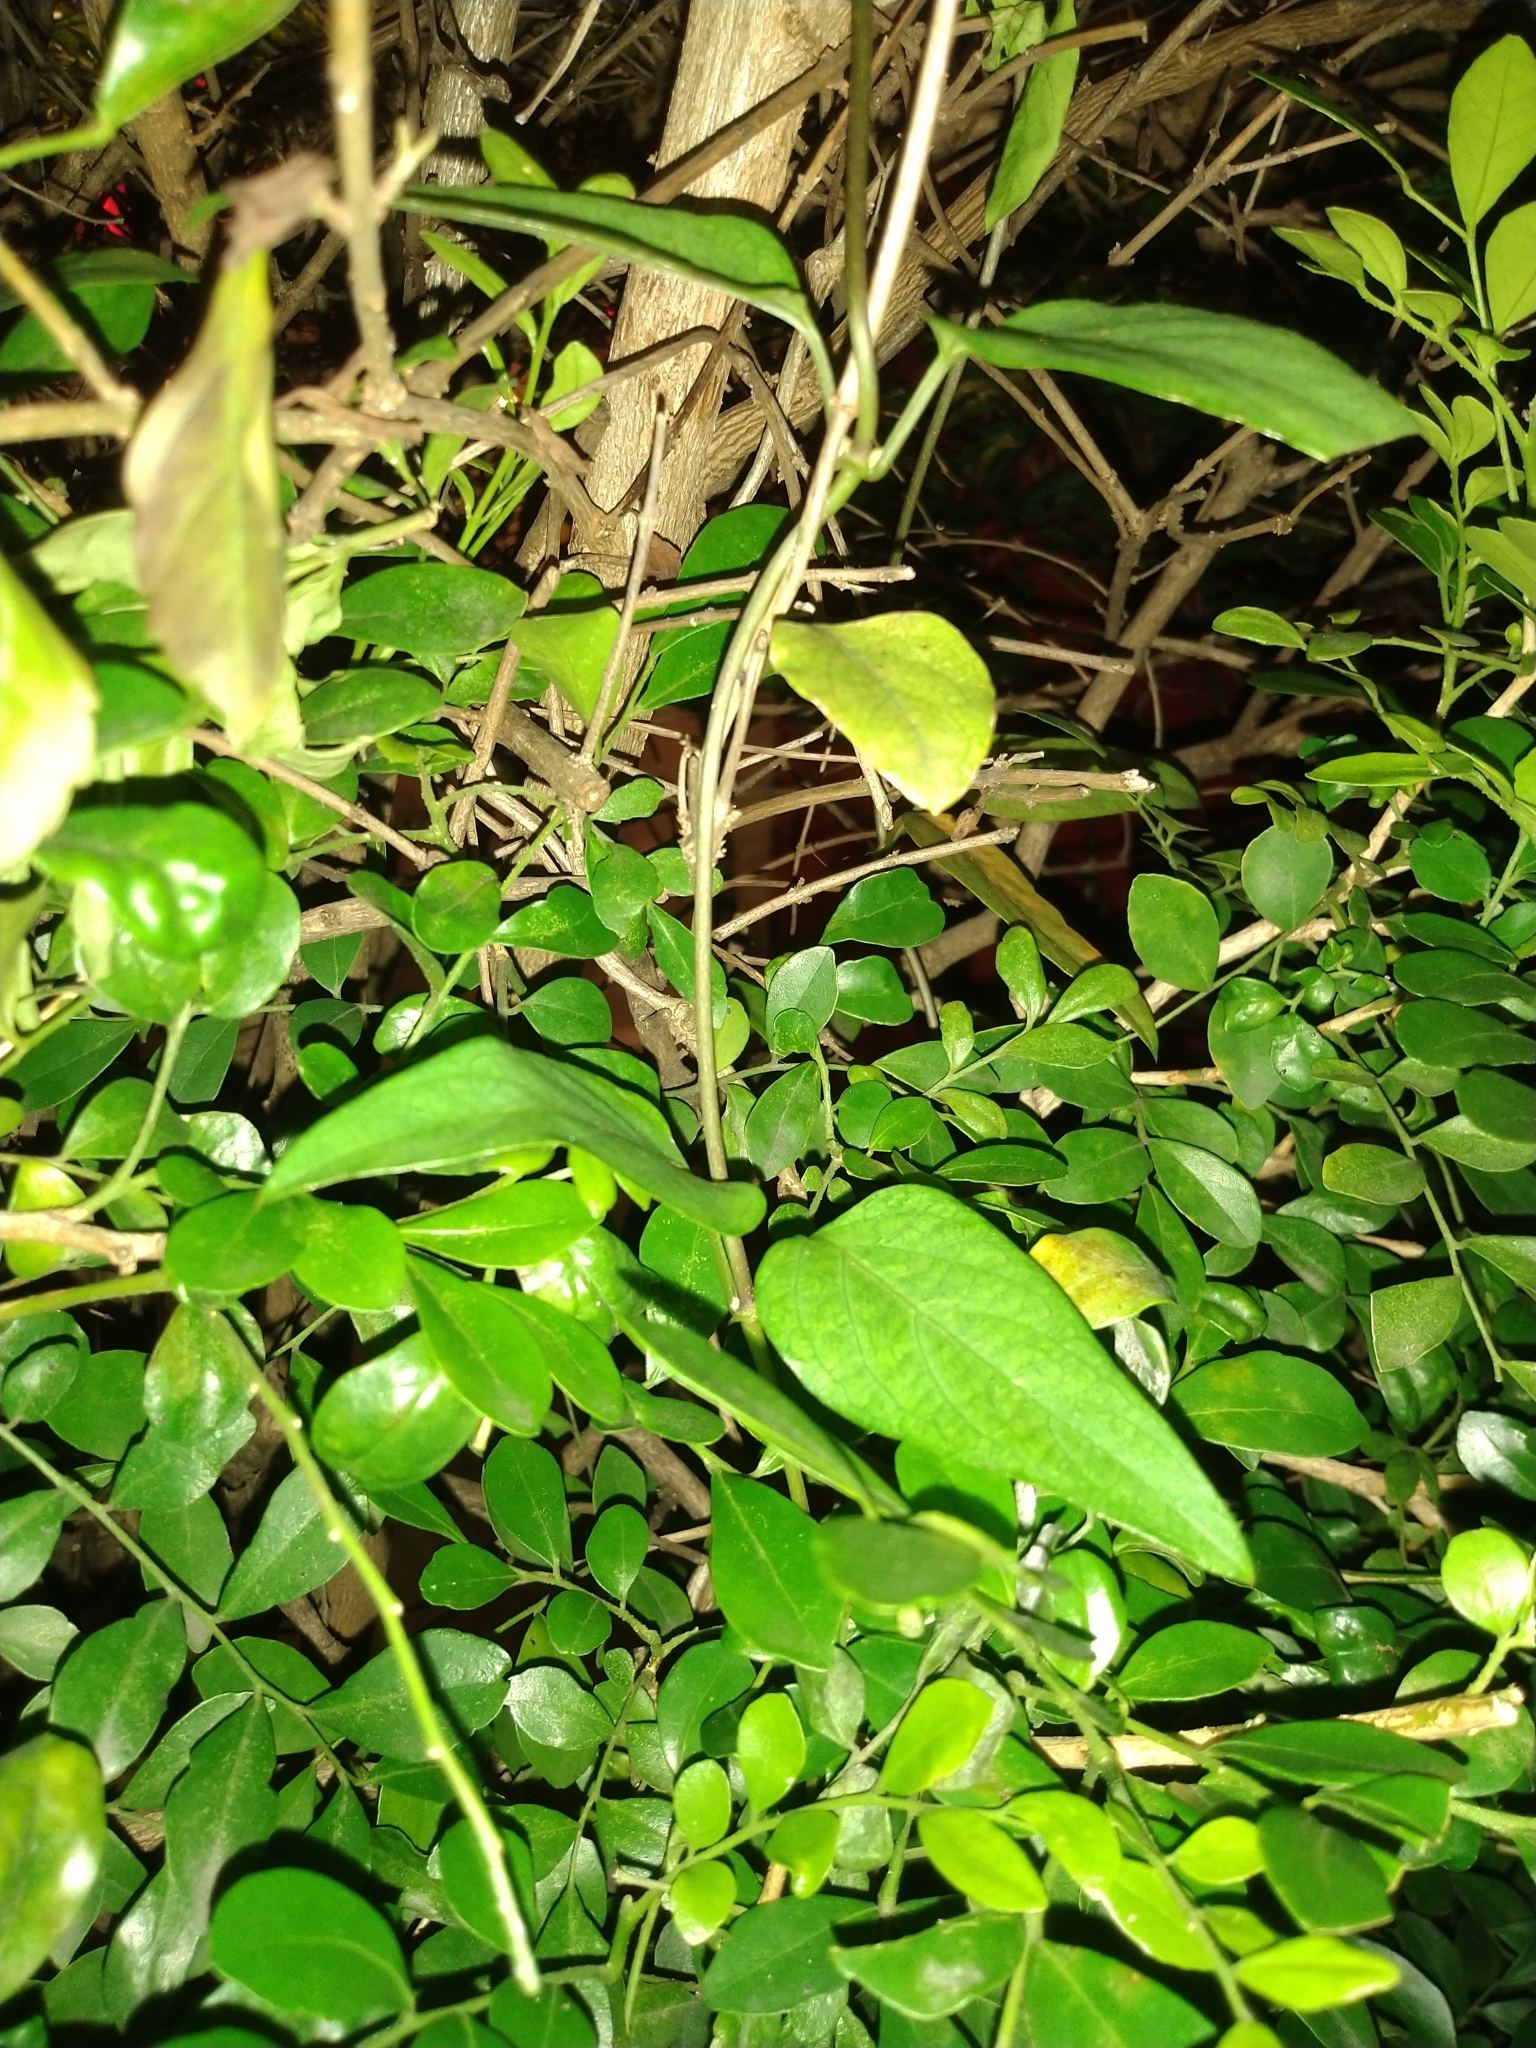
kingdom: Plantae
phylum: Tracheophyta
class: Magnoliopsida
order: Gentianales
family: Rubiaceae
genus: Paederia
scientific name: Paederia foetida
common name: Stinkvine
